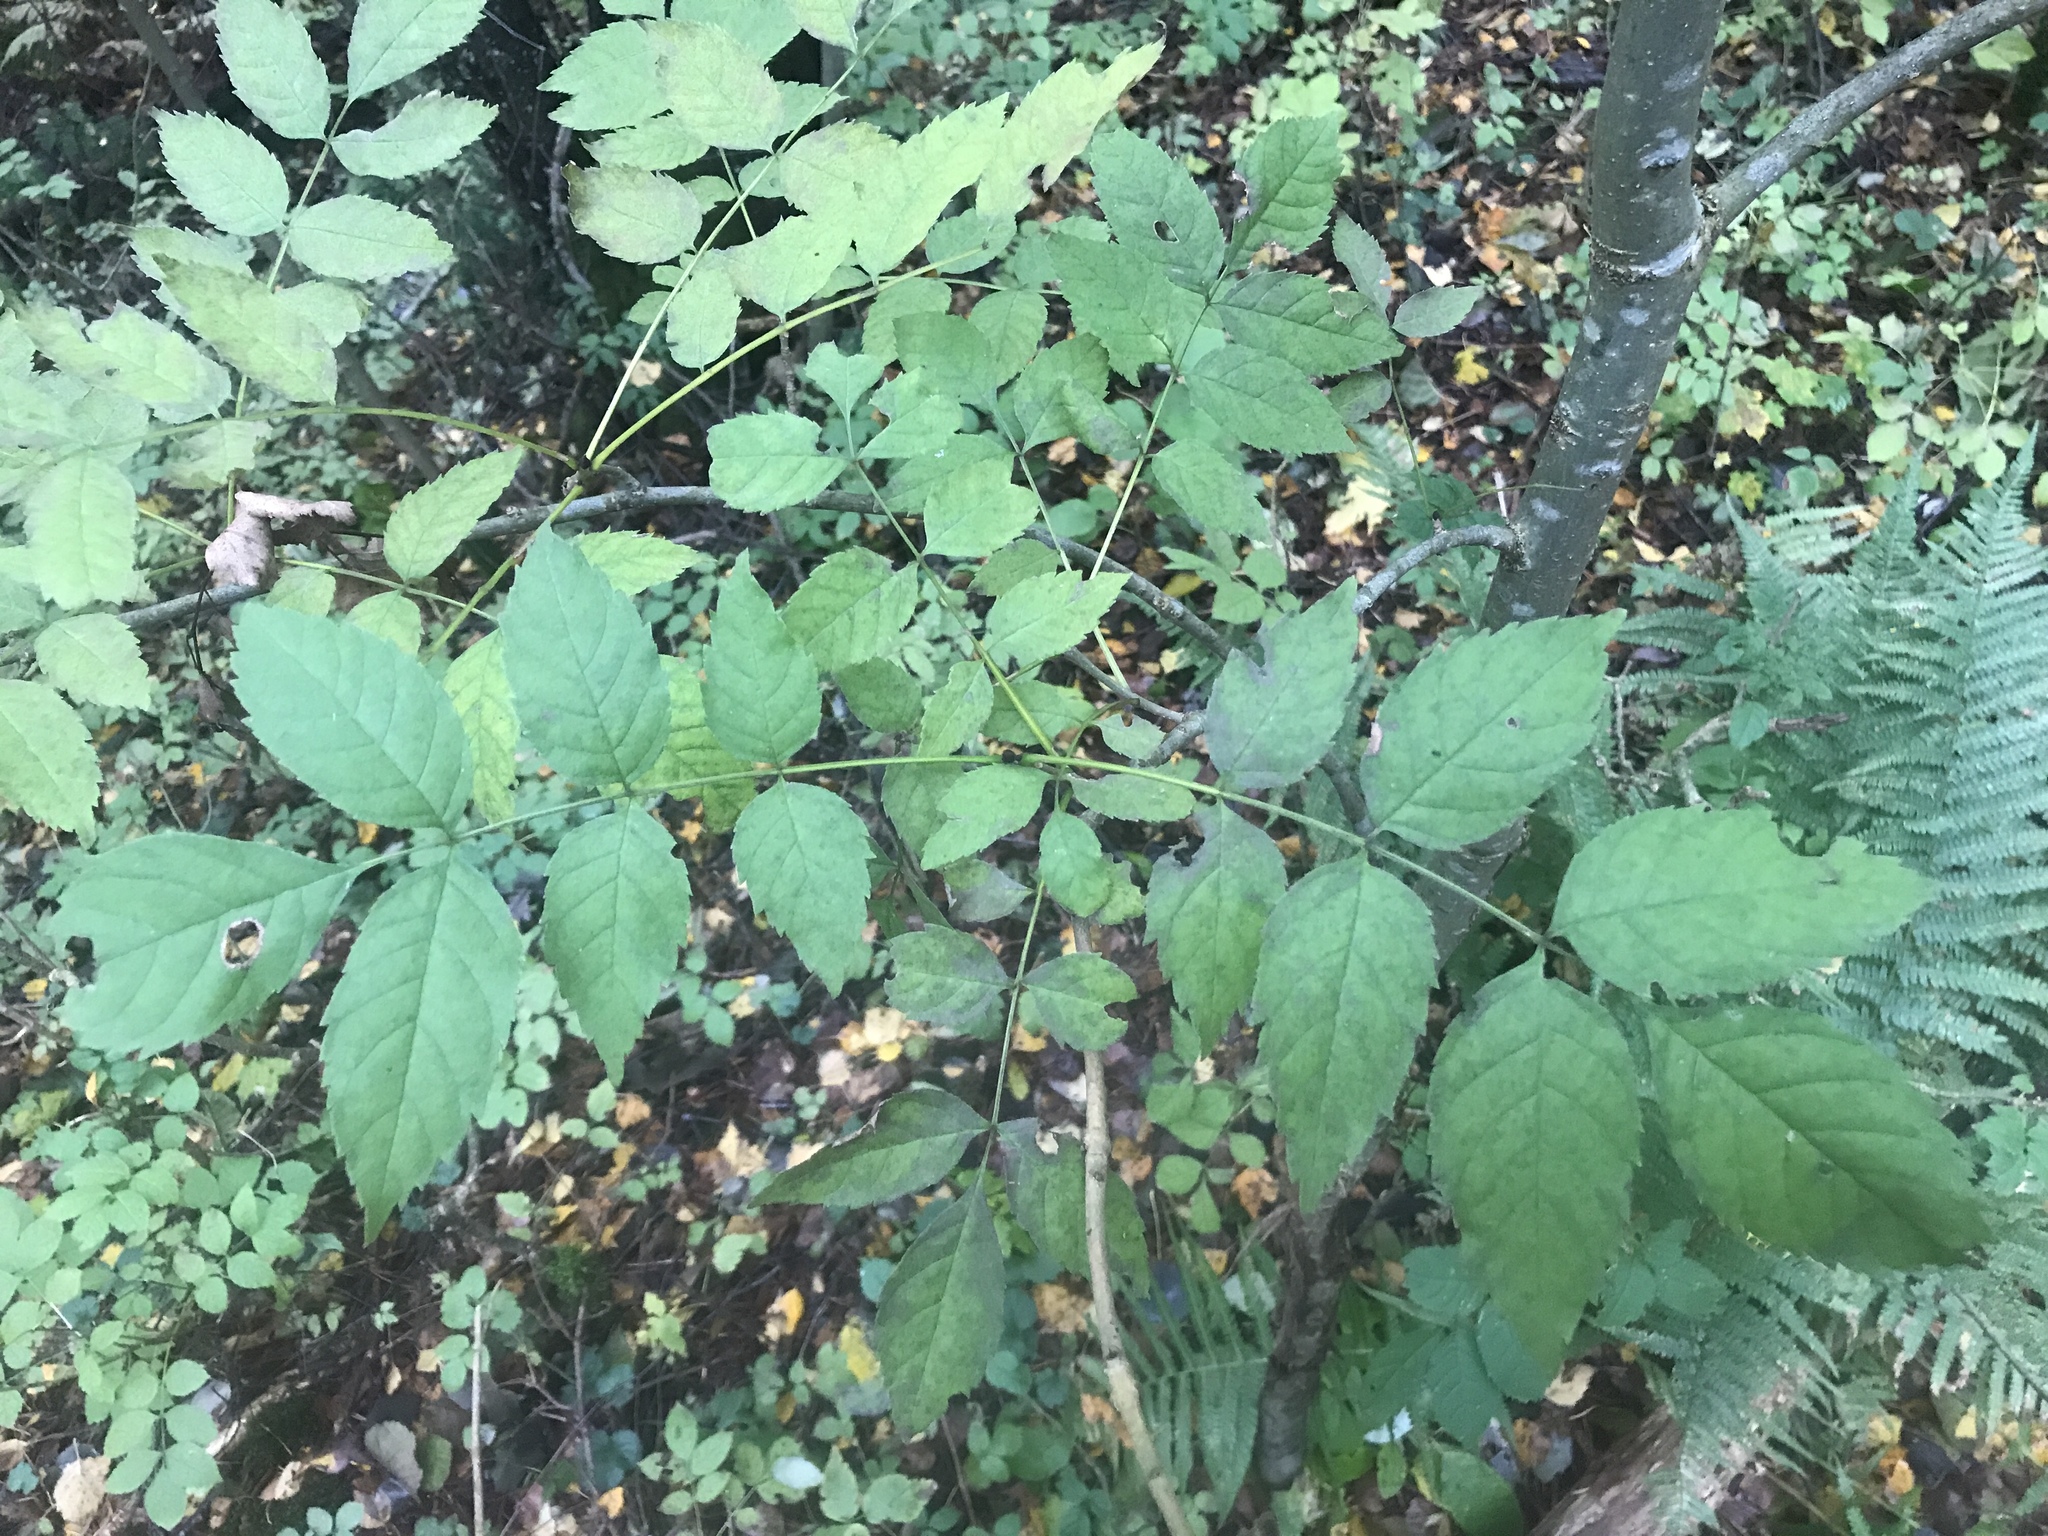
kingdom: Plantae
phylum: Tracheophyta
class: Magnoliopsida
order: Lamiales
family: Oleaceae
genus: Fraxinus
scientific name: Fraxinus excelsior
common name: European ash
